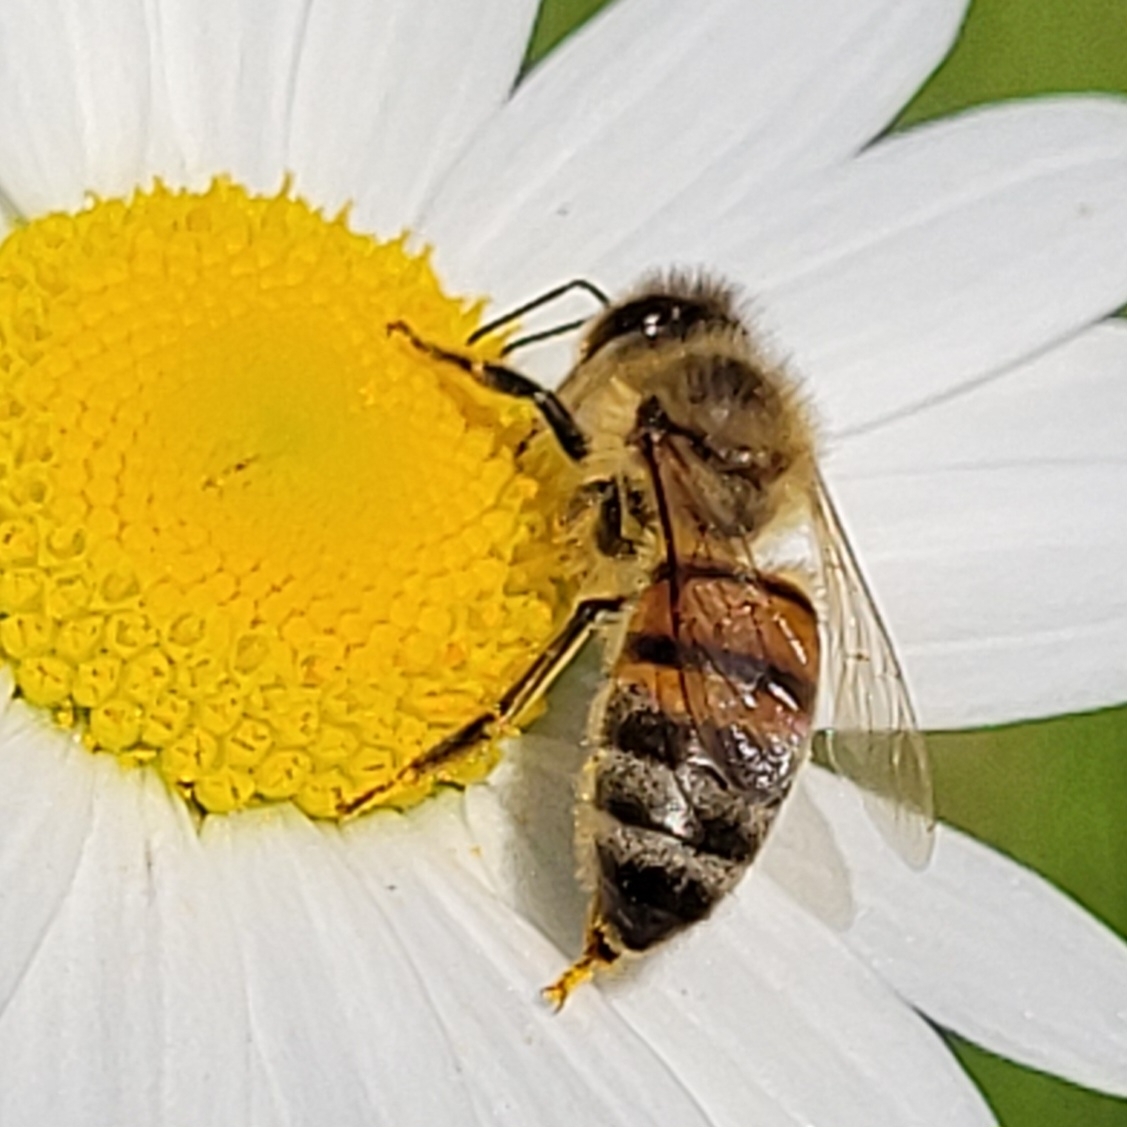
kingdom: Animalia
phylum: Arthropoda
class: Insecta
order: Hymenoptera
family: Apidae
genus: Apis
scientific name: Apis mellifera
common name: Honey bee
